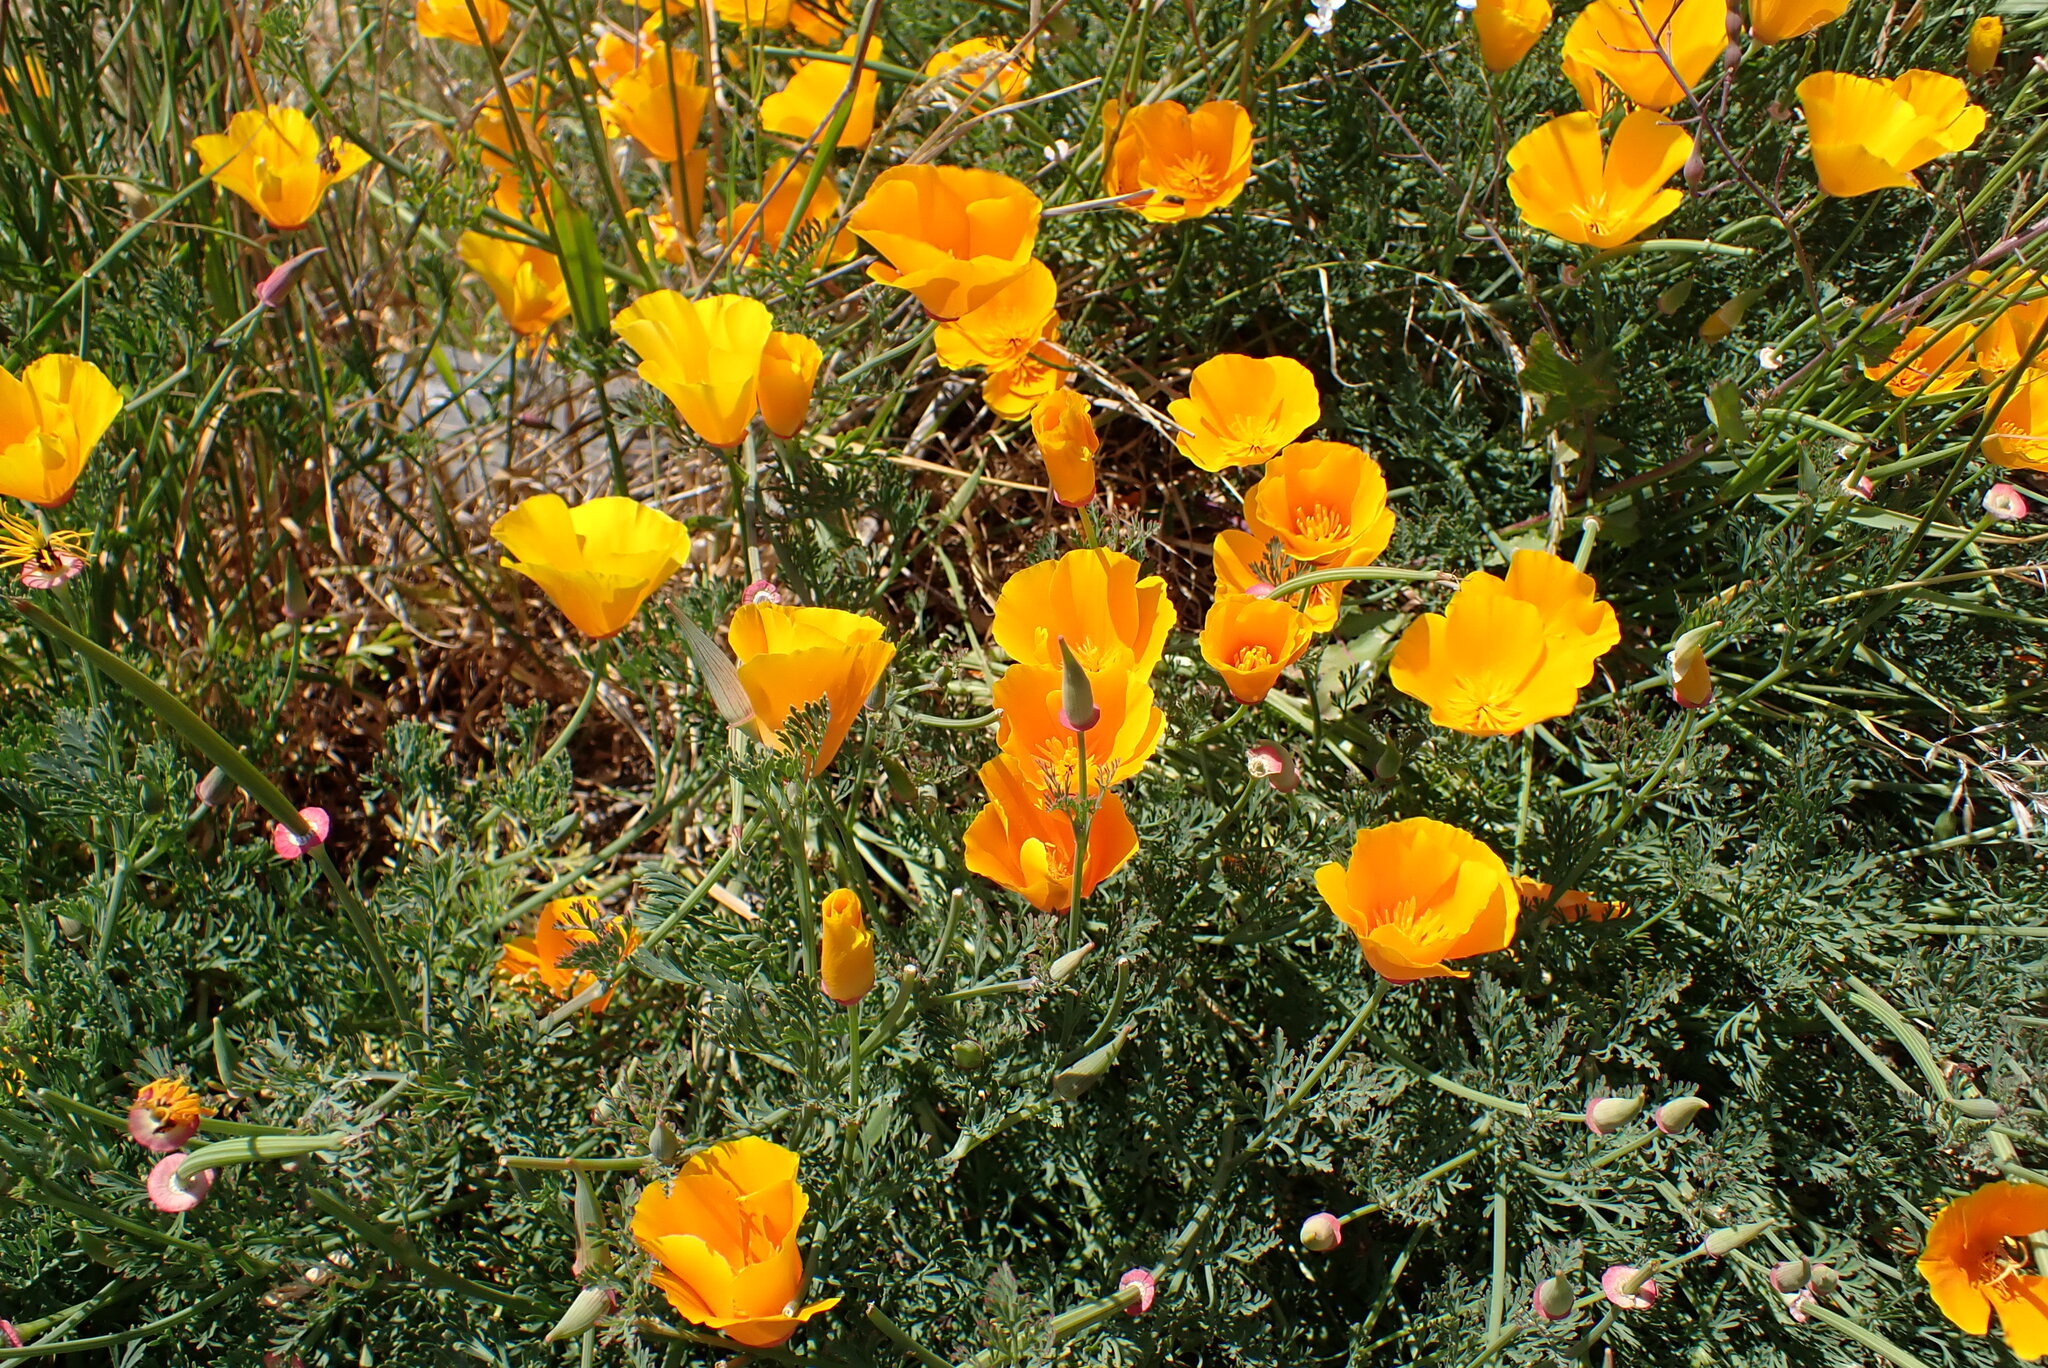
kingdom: Plantae
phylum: Tracheophyta
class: Magnoliopsida
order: Ranunculales
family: Papaveraceae
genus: Eschscholzia
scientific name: Eschscholzia californica
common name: California poppy
